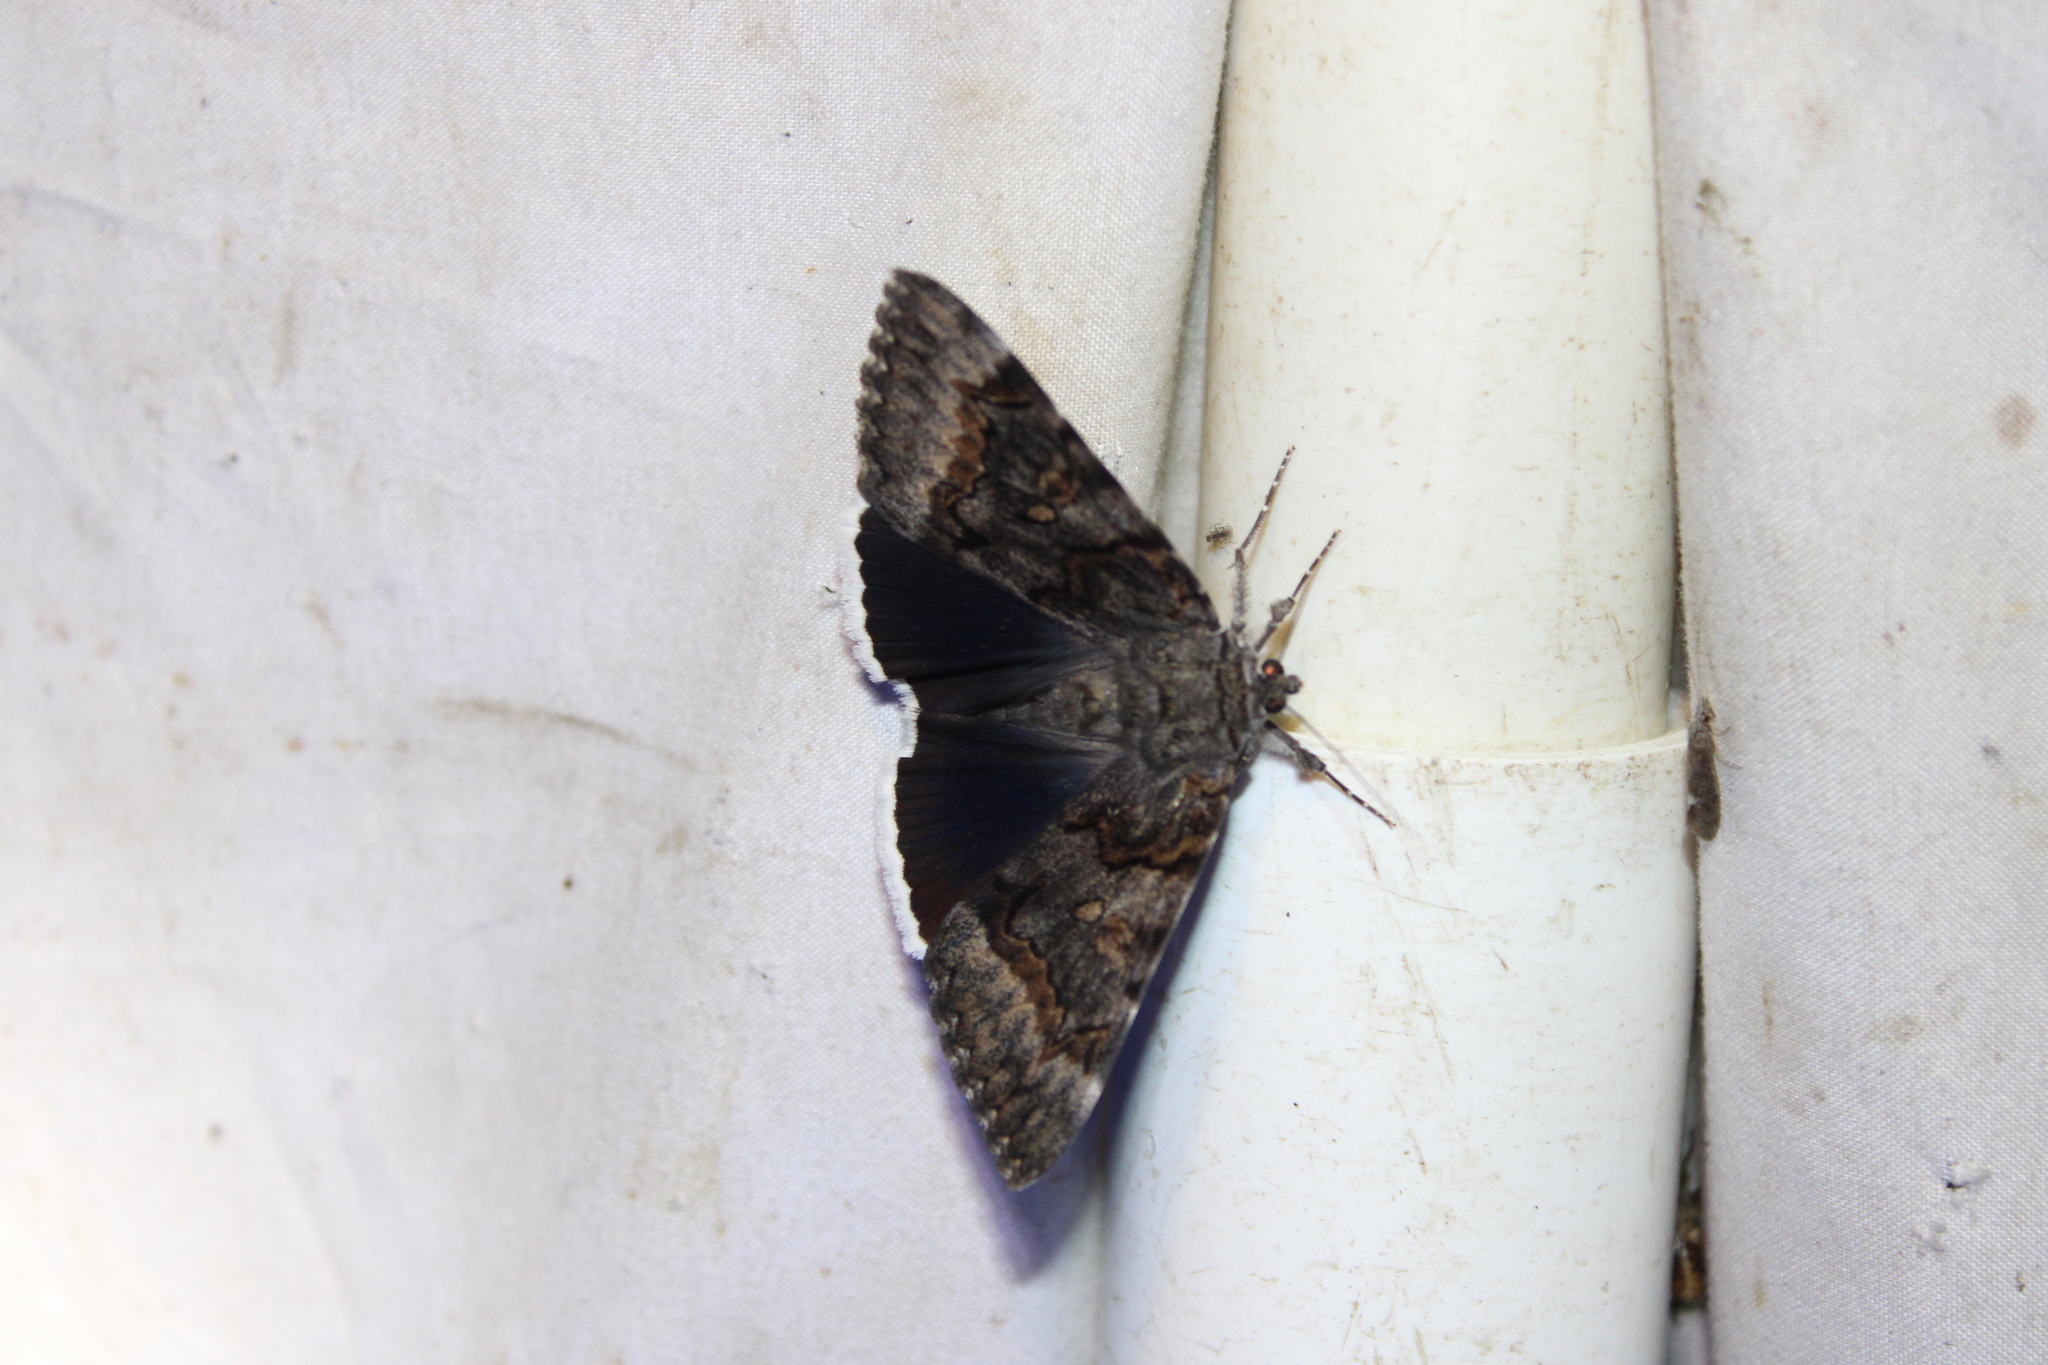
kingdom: Animalia
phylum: Arthropoda
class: Insecta
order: Lepidoptera
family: Erebidae
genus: Catocala
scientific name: Catocala epione
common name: Epione underwing
